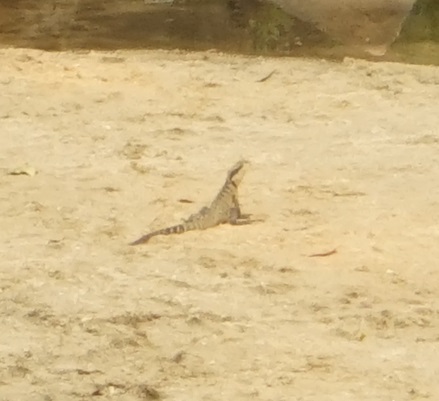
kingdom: Animalia
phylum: Chordata
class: Squamata
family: Agamidae
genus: Intellagama
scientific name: Intellagama lesueurii
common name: Eastern water dragon
